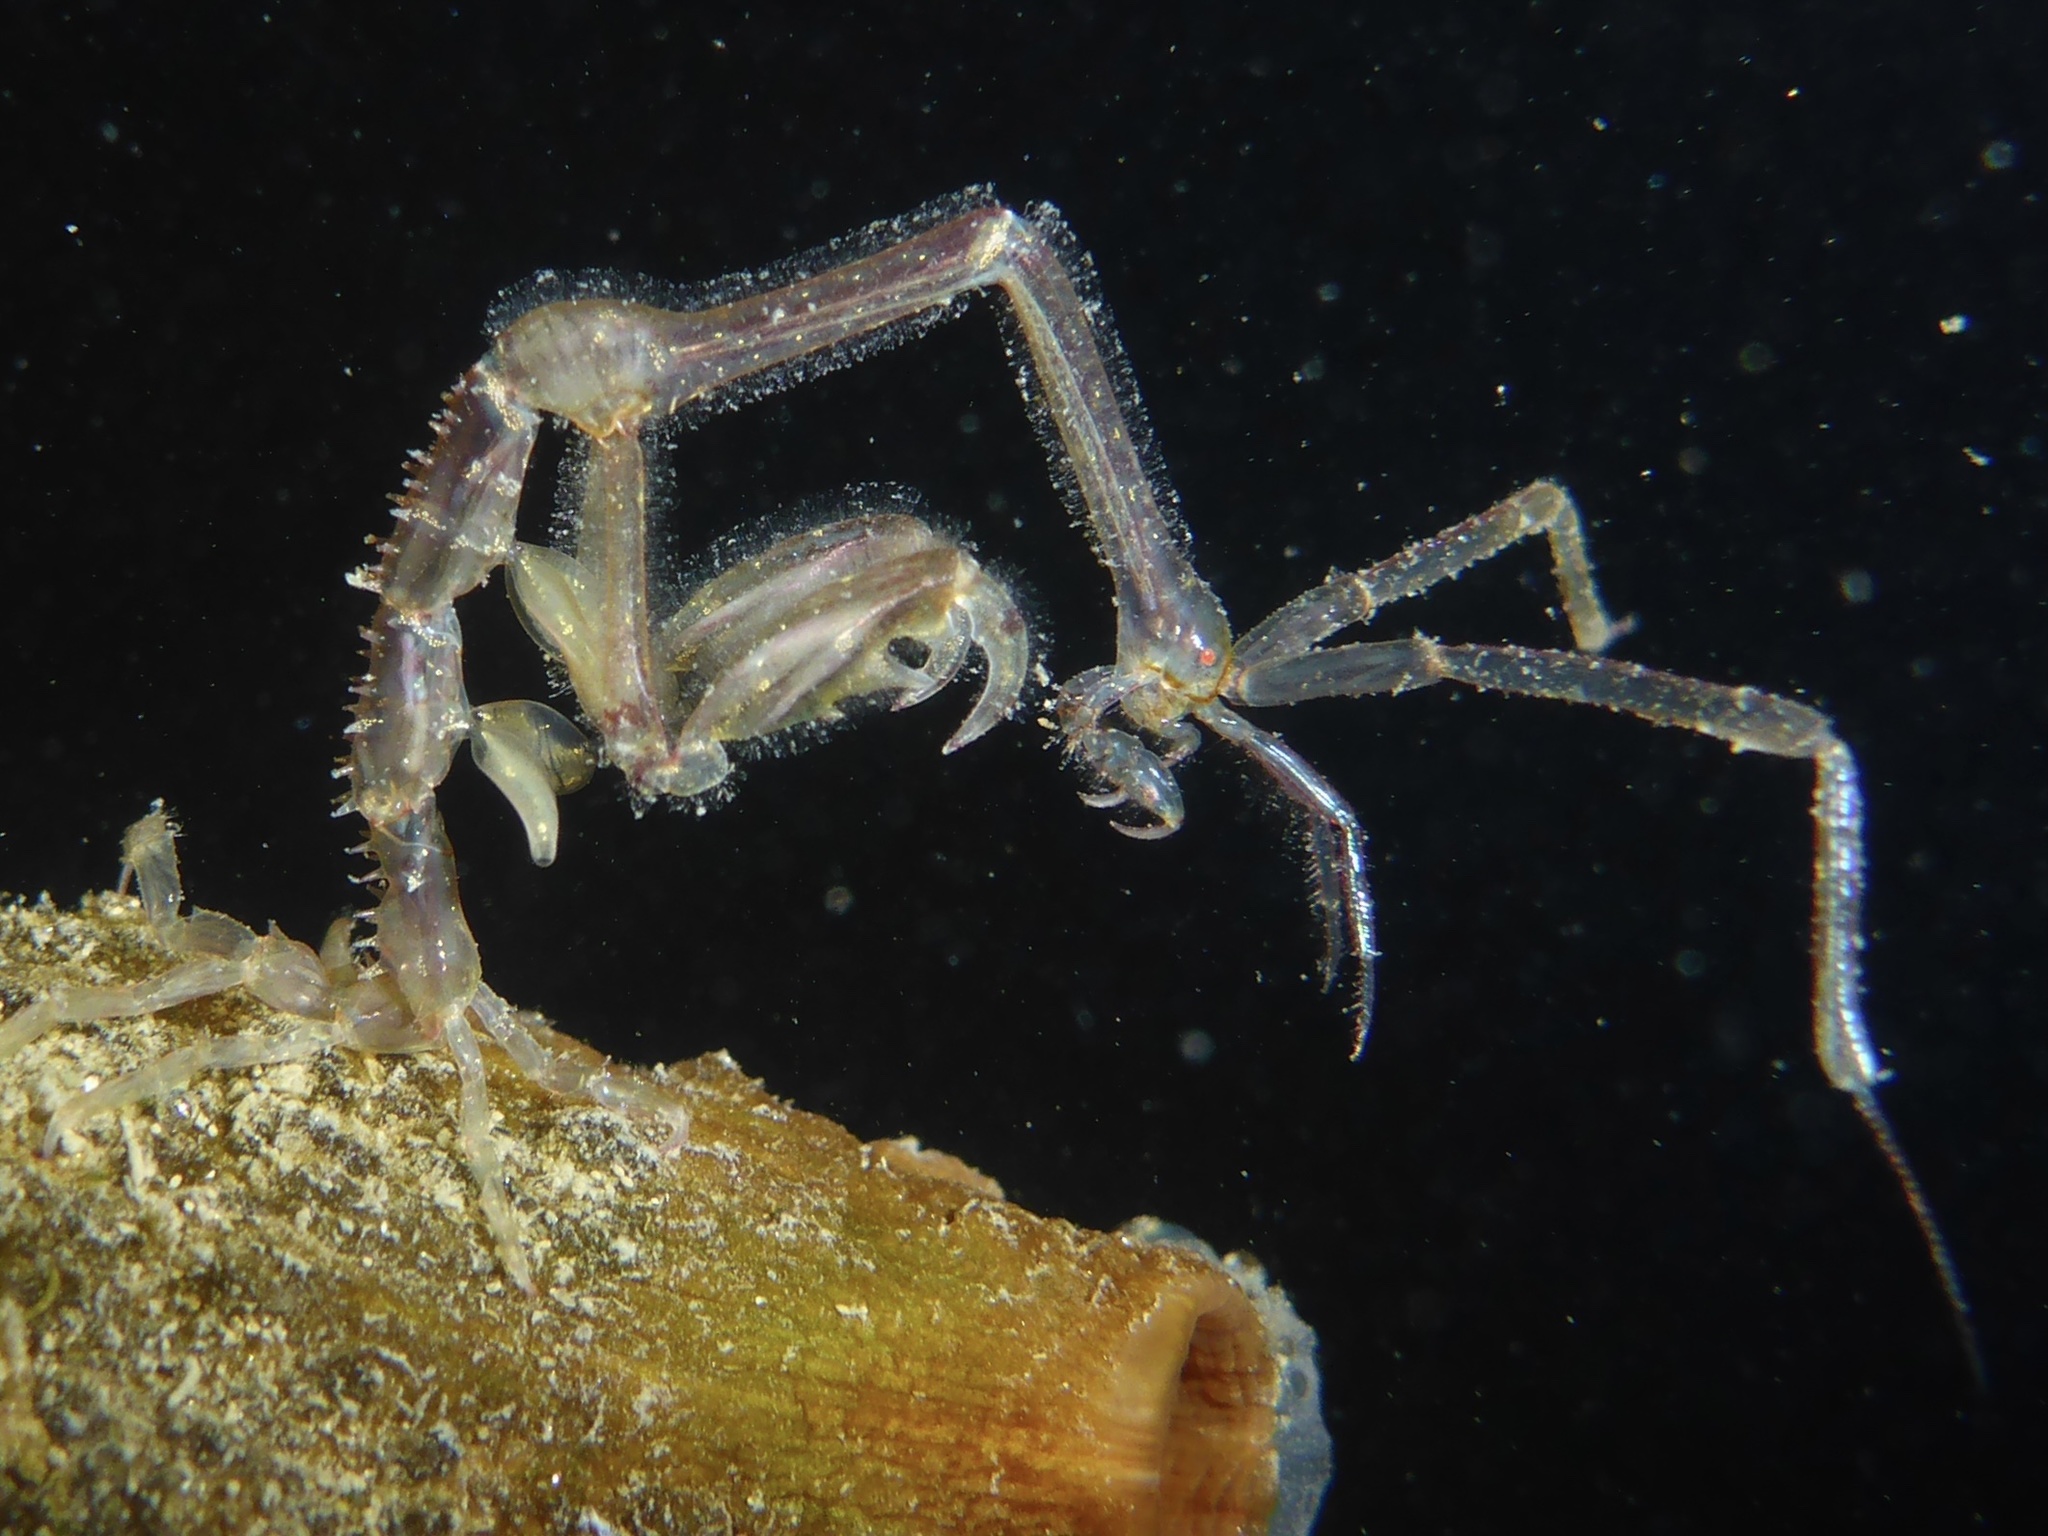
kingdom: Animalia
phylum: Arthropoda
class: Malacostraca
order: Amphipoda
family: Caprellidae
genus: Caprella
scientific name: Caprella mutica
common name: Japanese skeleton shrimp
